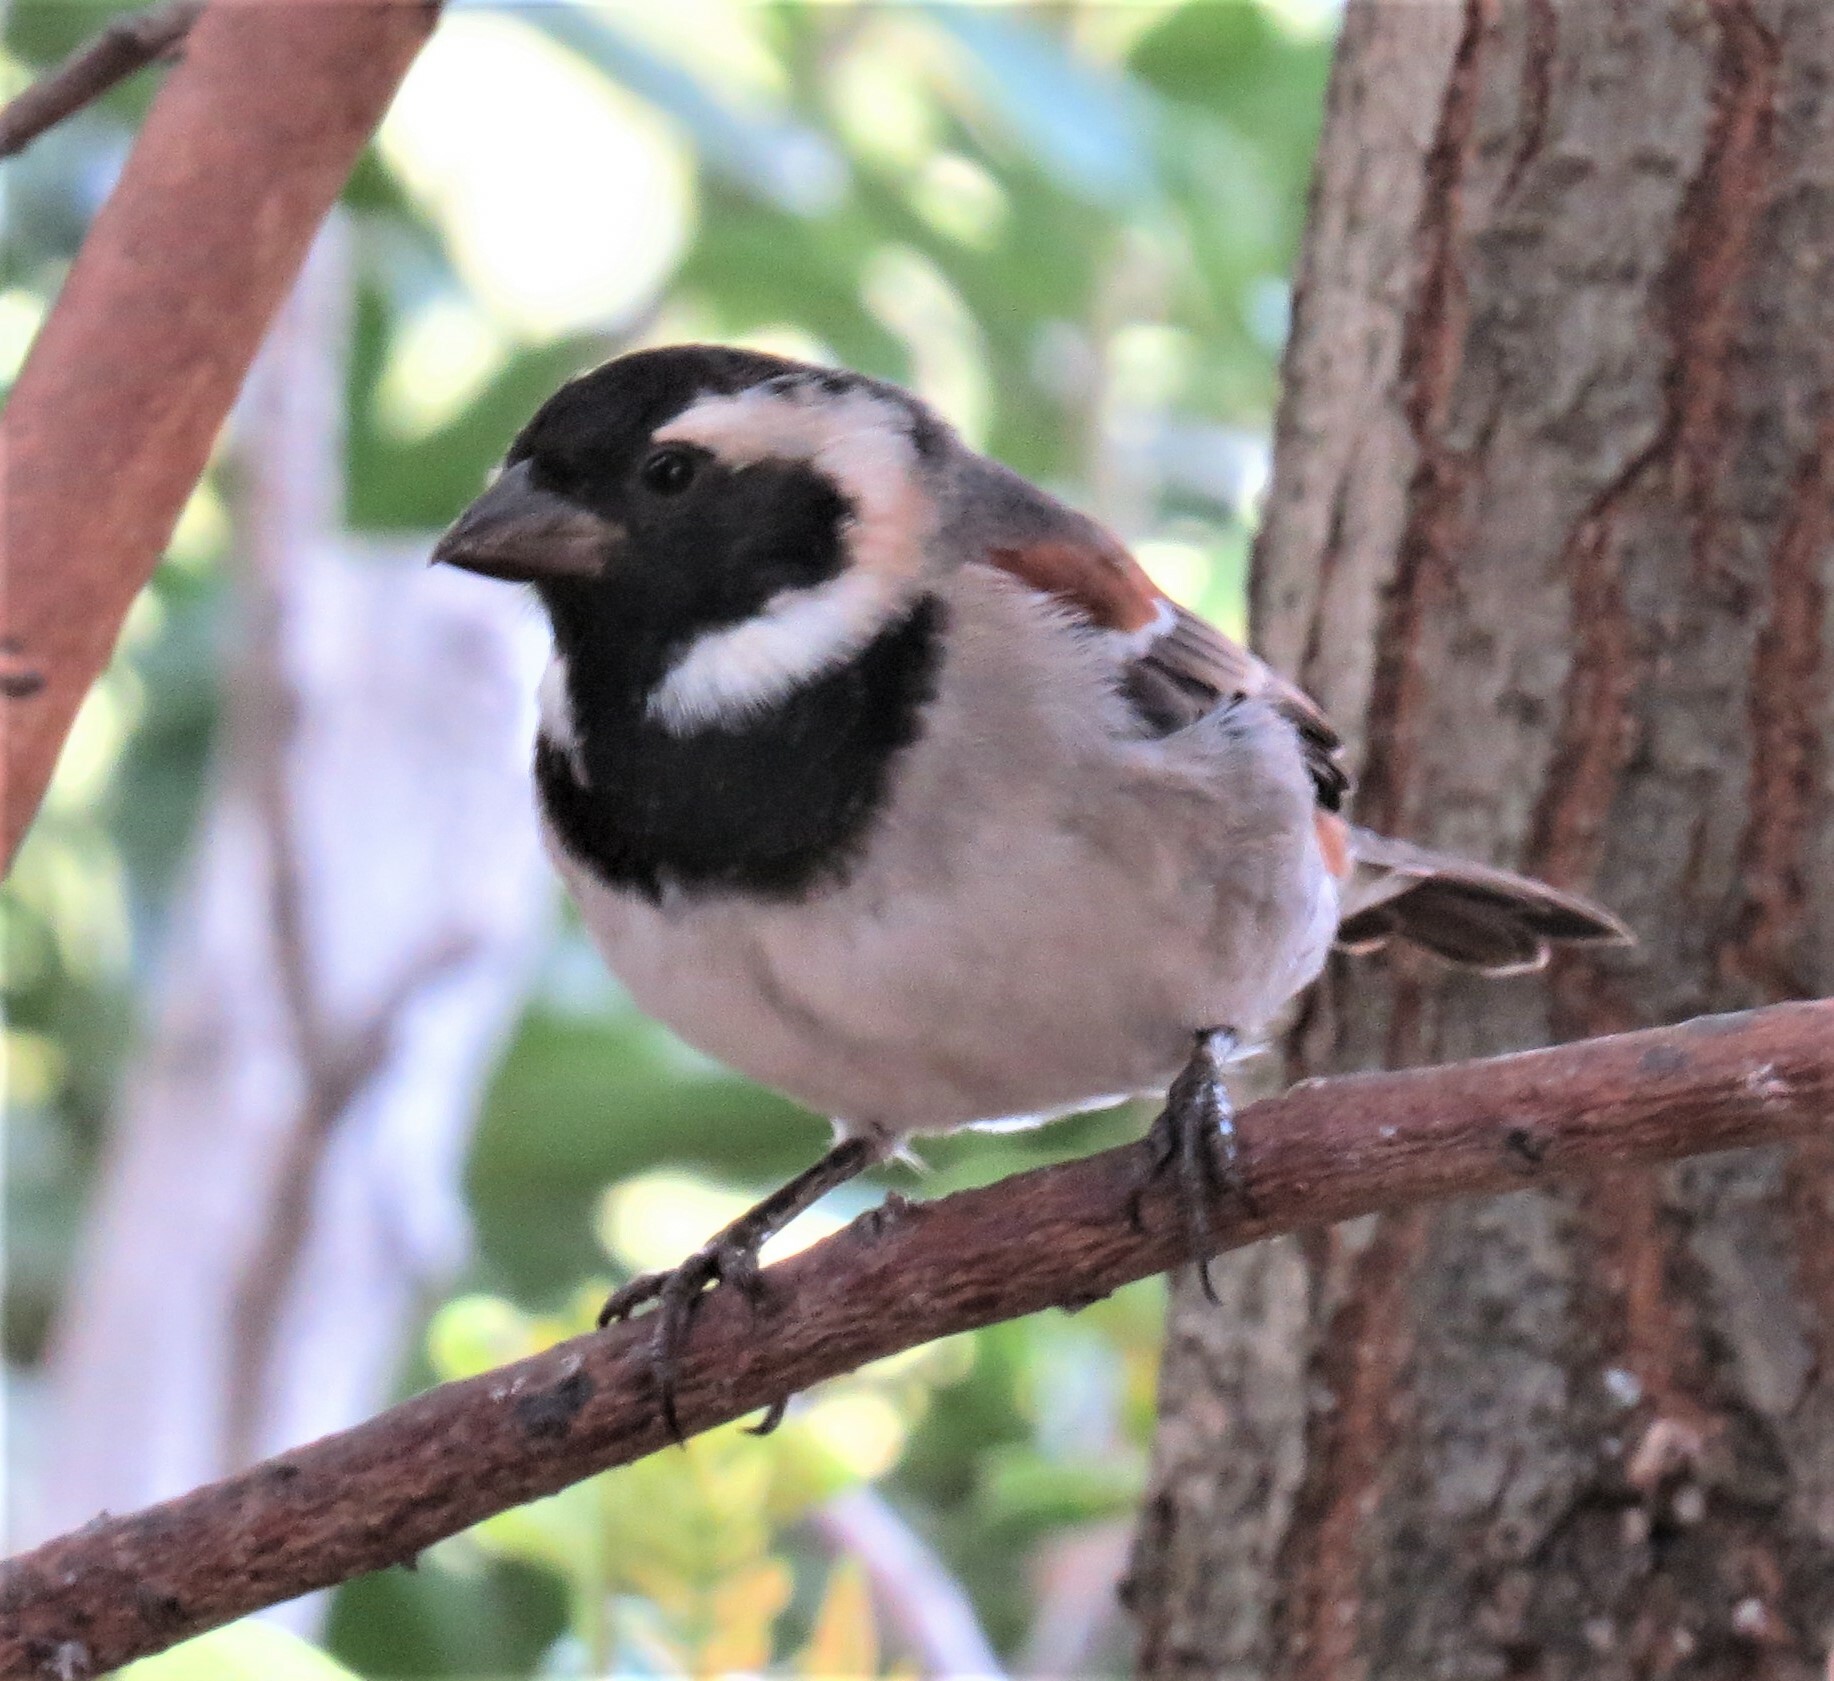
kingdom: Animalia
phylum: Chordata
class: Aves
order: Passeriformes
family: Passeridae
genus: Passer
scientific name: Passer melanurus
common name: Cape sparrow
